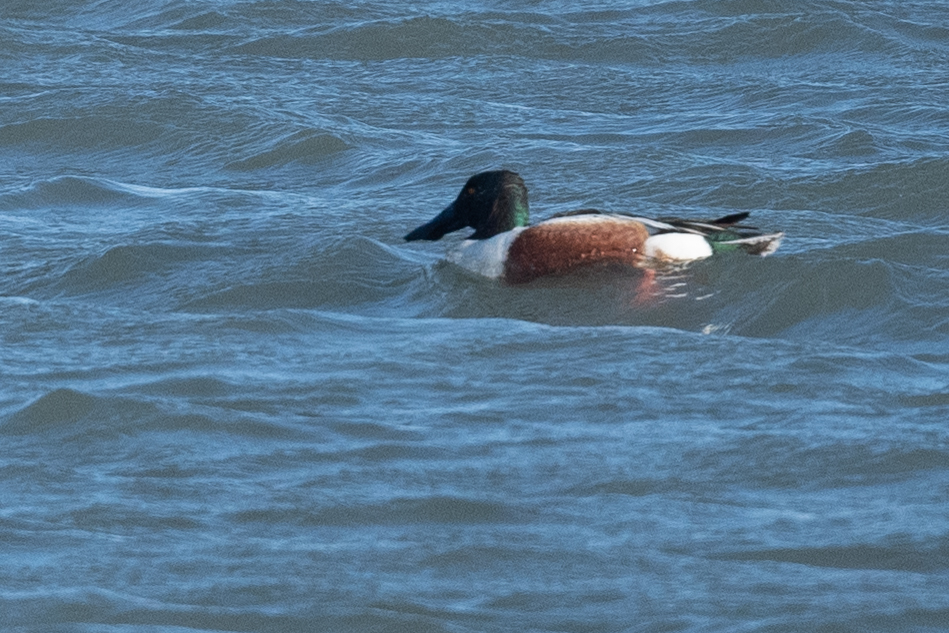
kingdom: Animalia
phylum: Chordata
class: Aves
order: Anseriformes
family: Anatidae
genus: Spatula
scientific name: Spatula clypeata
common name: Northern shoveler
